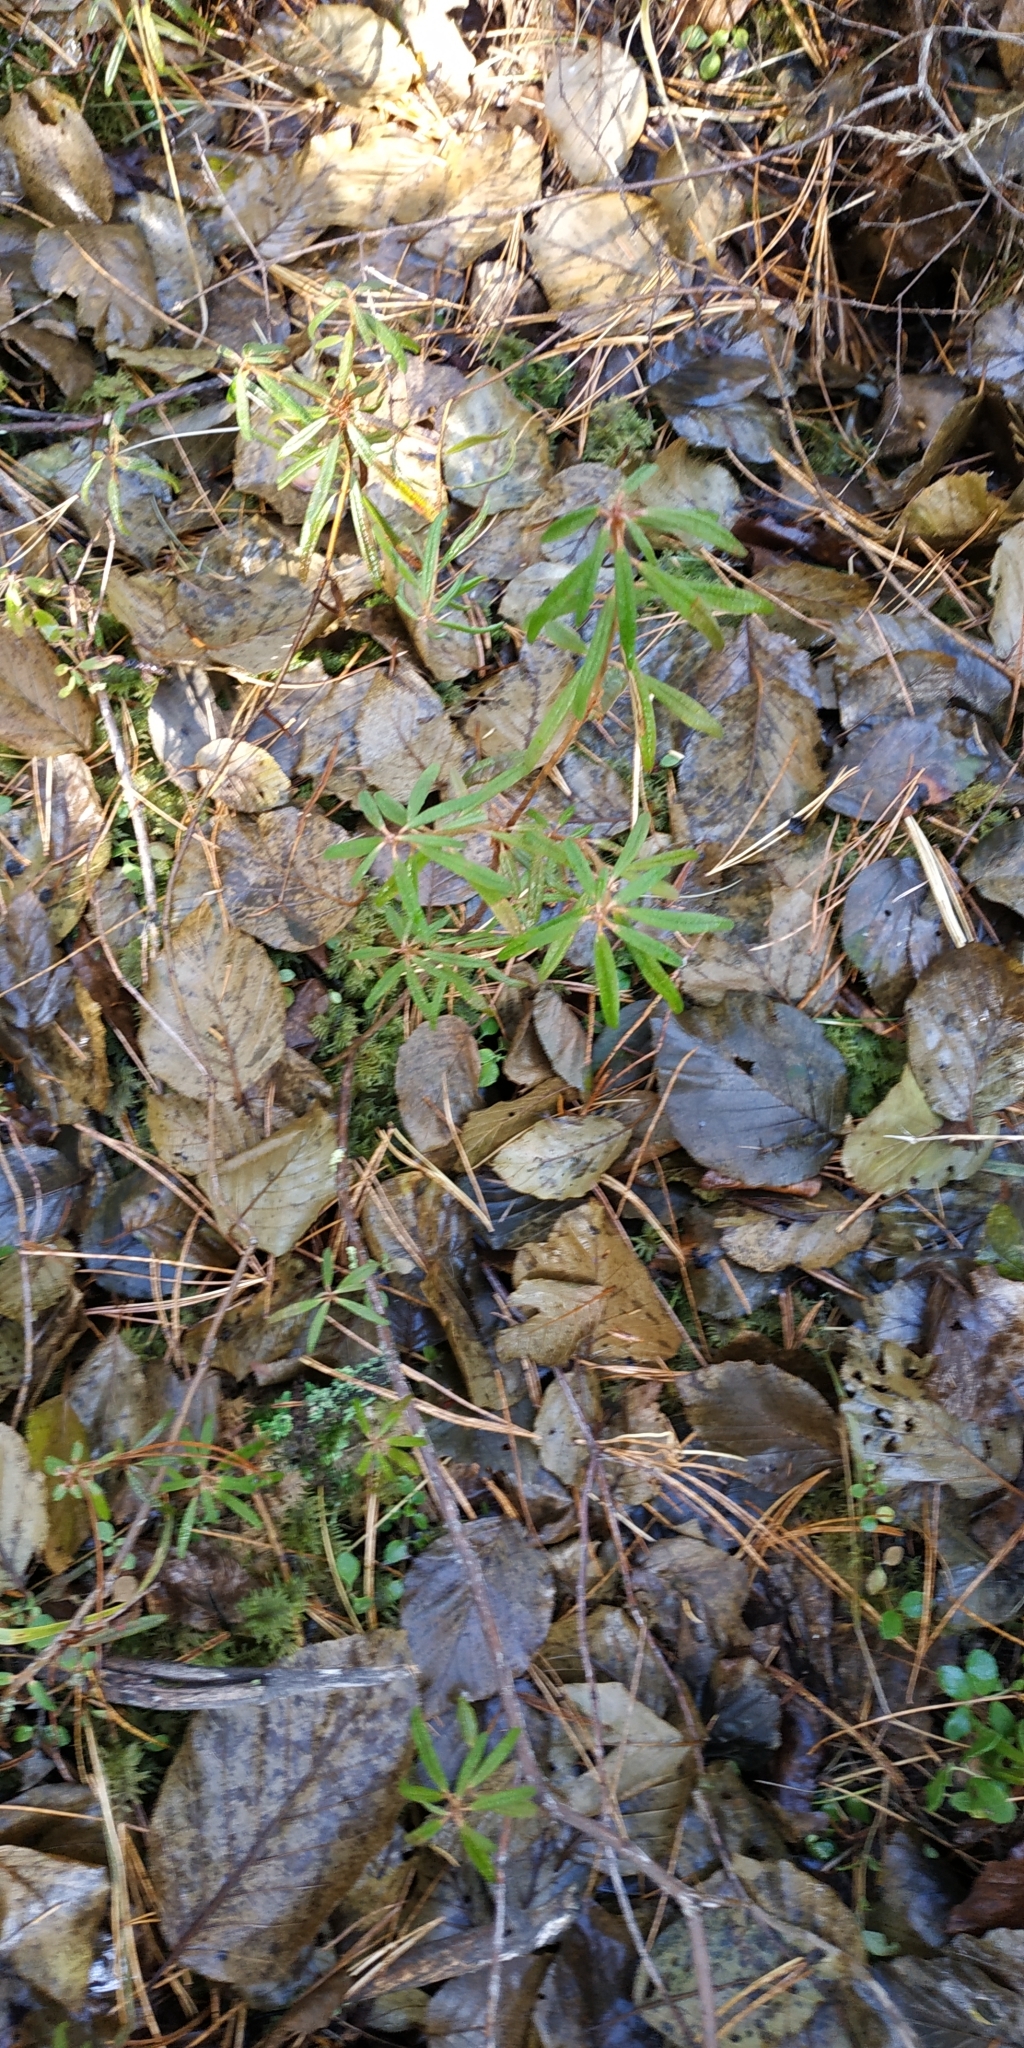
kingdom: Plantae
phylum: Tracheophyta
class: Magnoliopsida
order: Ericales
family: Ericaceae
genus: Rhododendron
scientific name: Rhododendron tomentosum
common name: Marsh labrador tea
